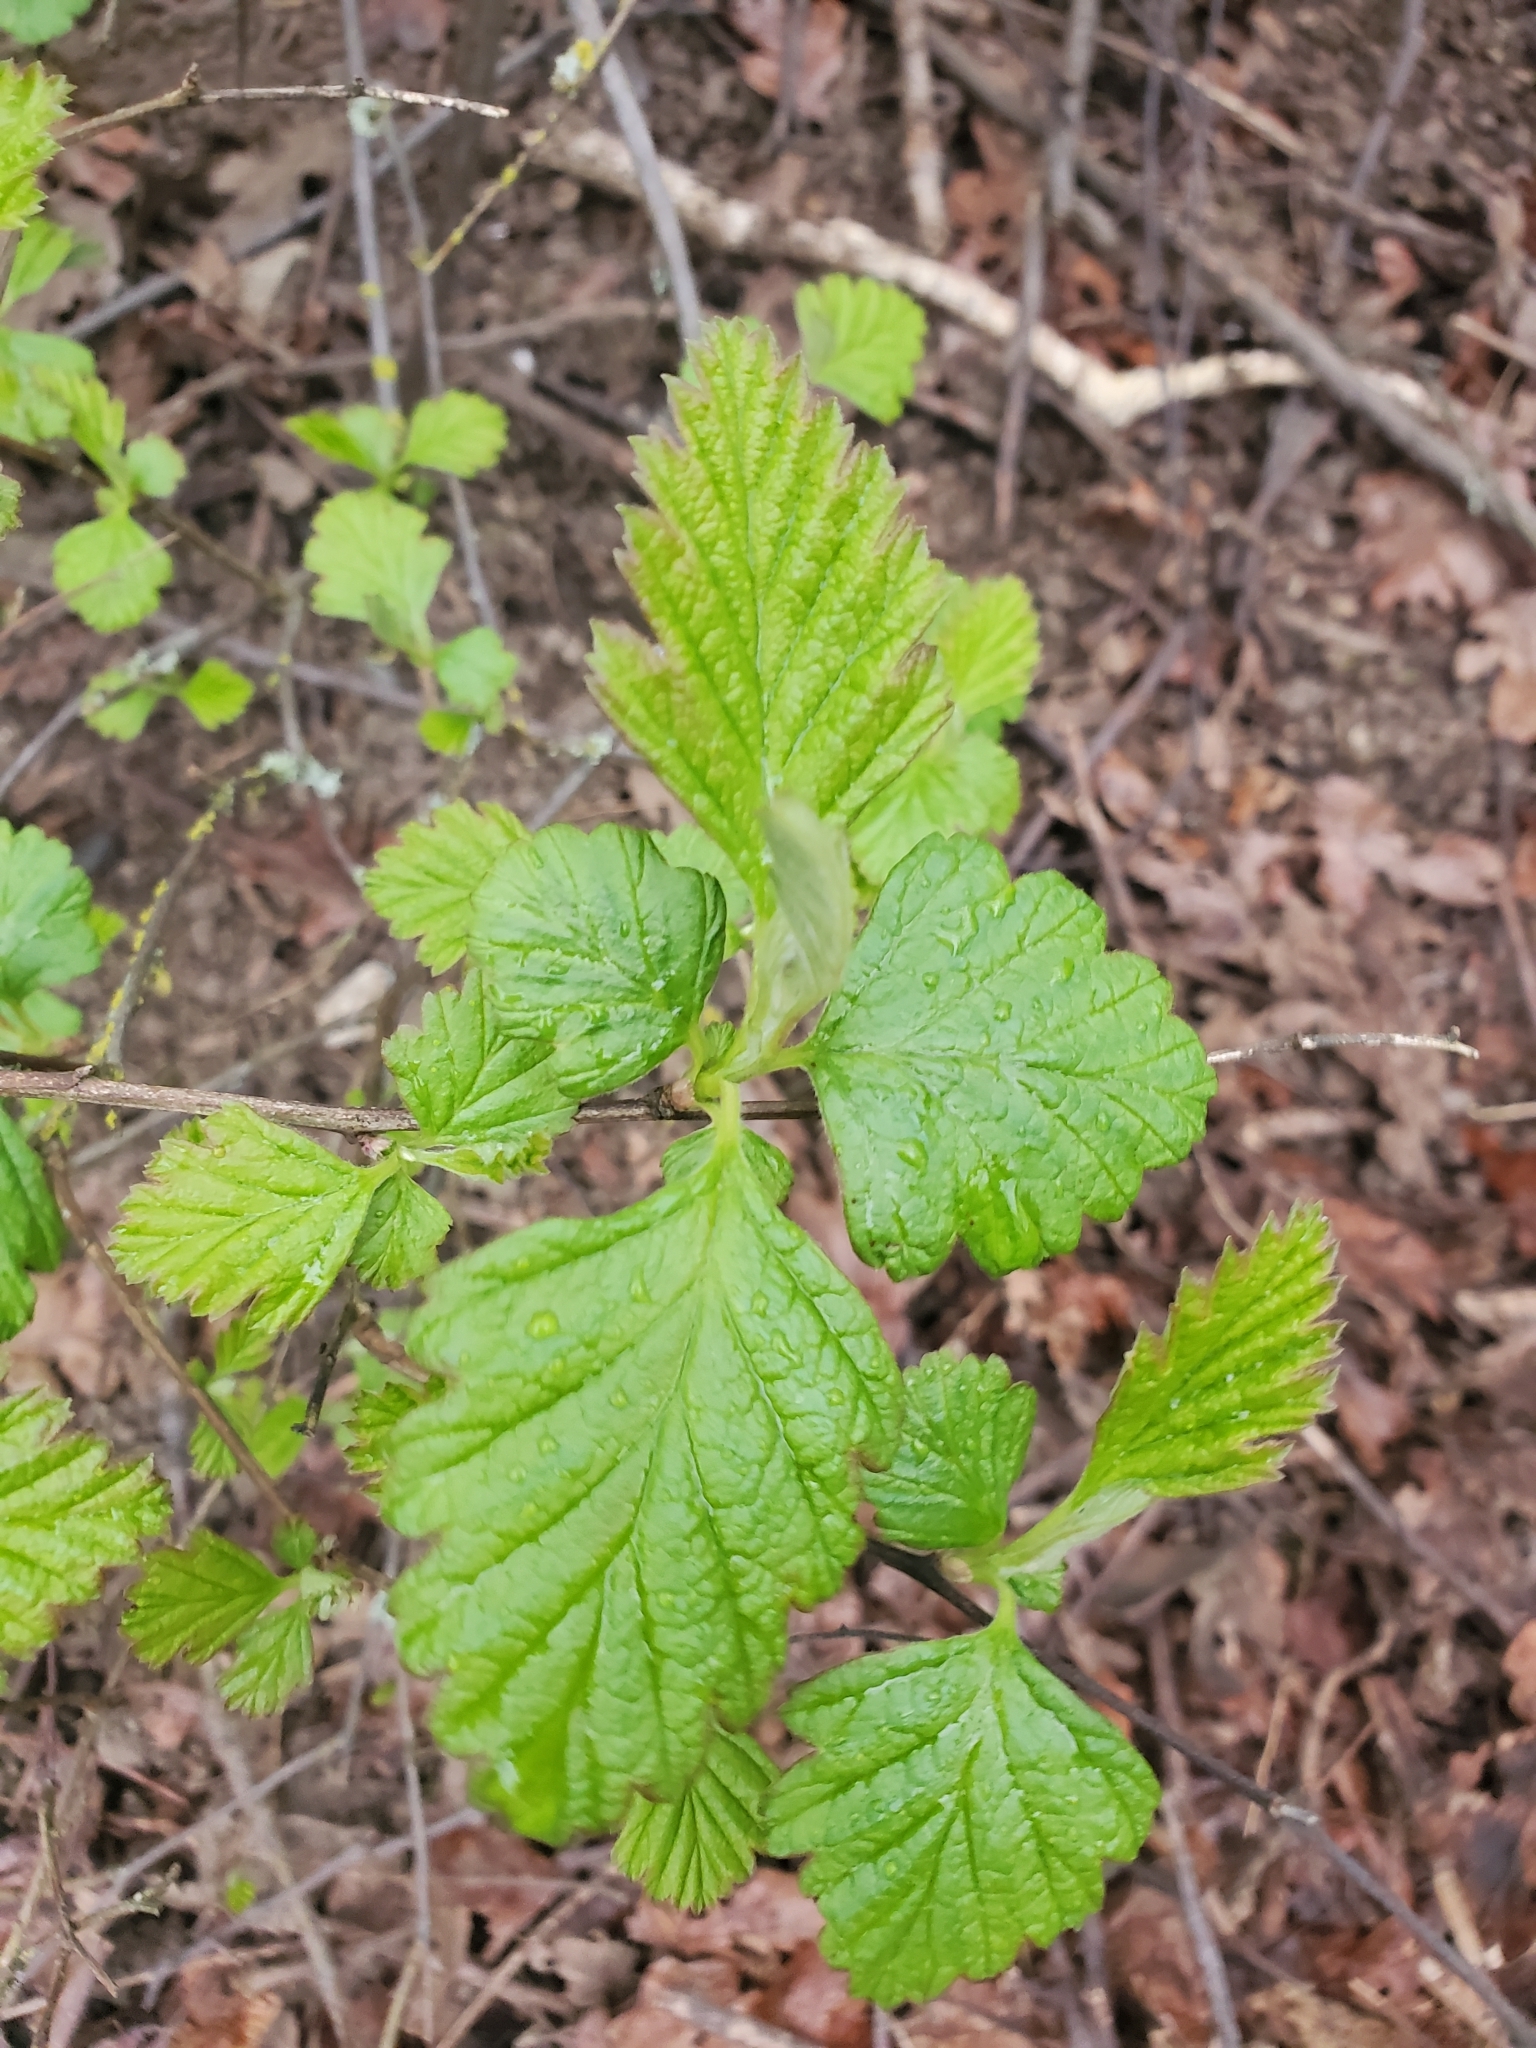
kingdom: Plantae
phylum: Tracheophyta
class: Magnoliopsida
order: Rosales
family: Rosaceae
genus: Holodiscus
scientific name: Holodiscus discolor
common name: Oceanspray
